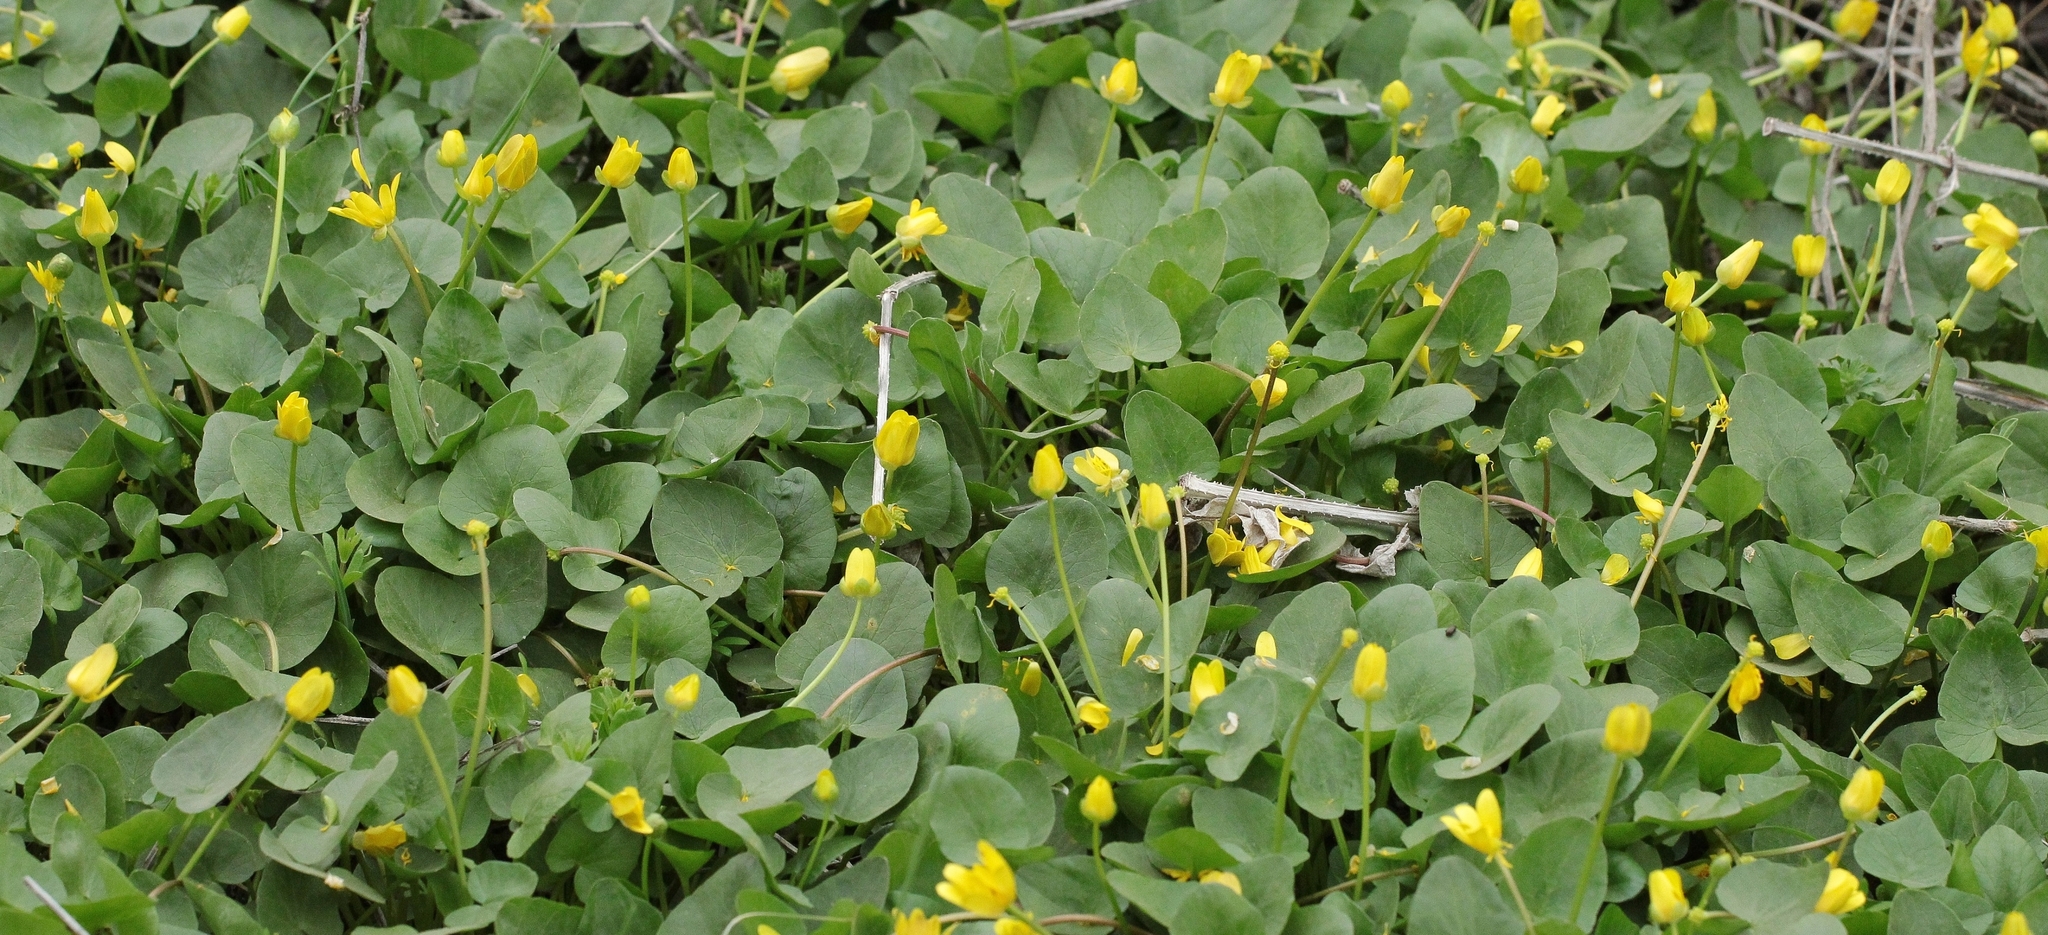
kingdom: Plantae
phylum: Tracheophyta
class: Magnoliopsida
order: Ranunculales
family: Ranunculaceae
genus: Ficaria
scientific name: Ficaria verna
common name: Lesser celandine
